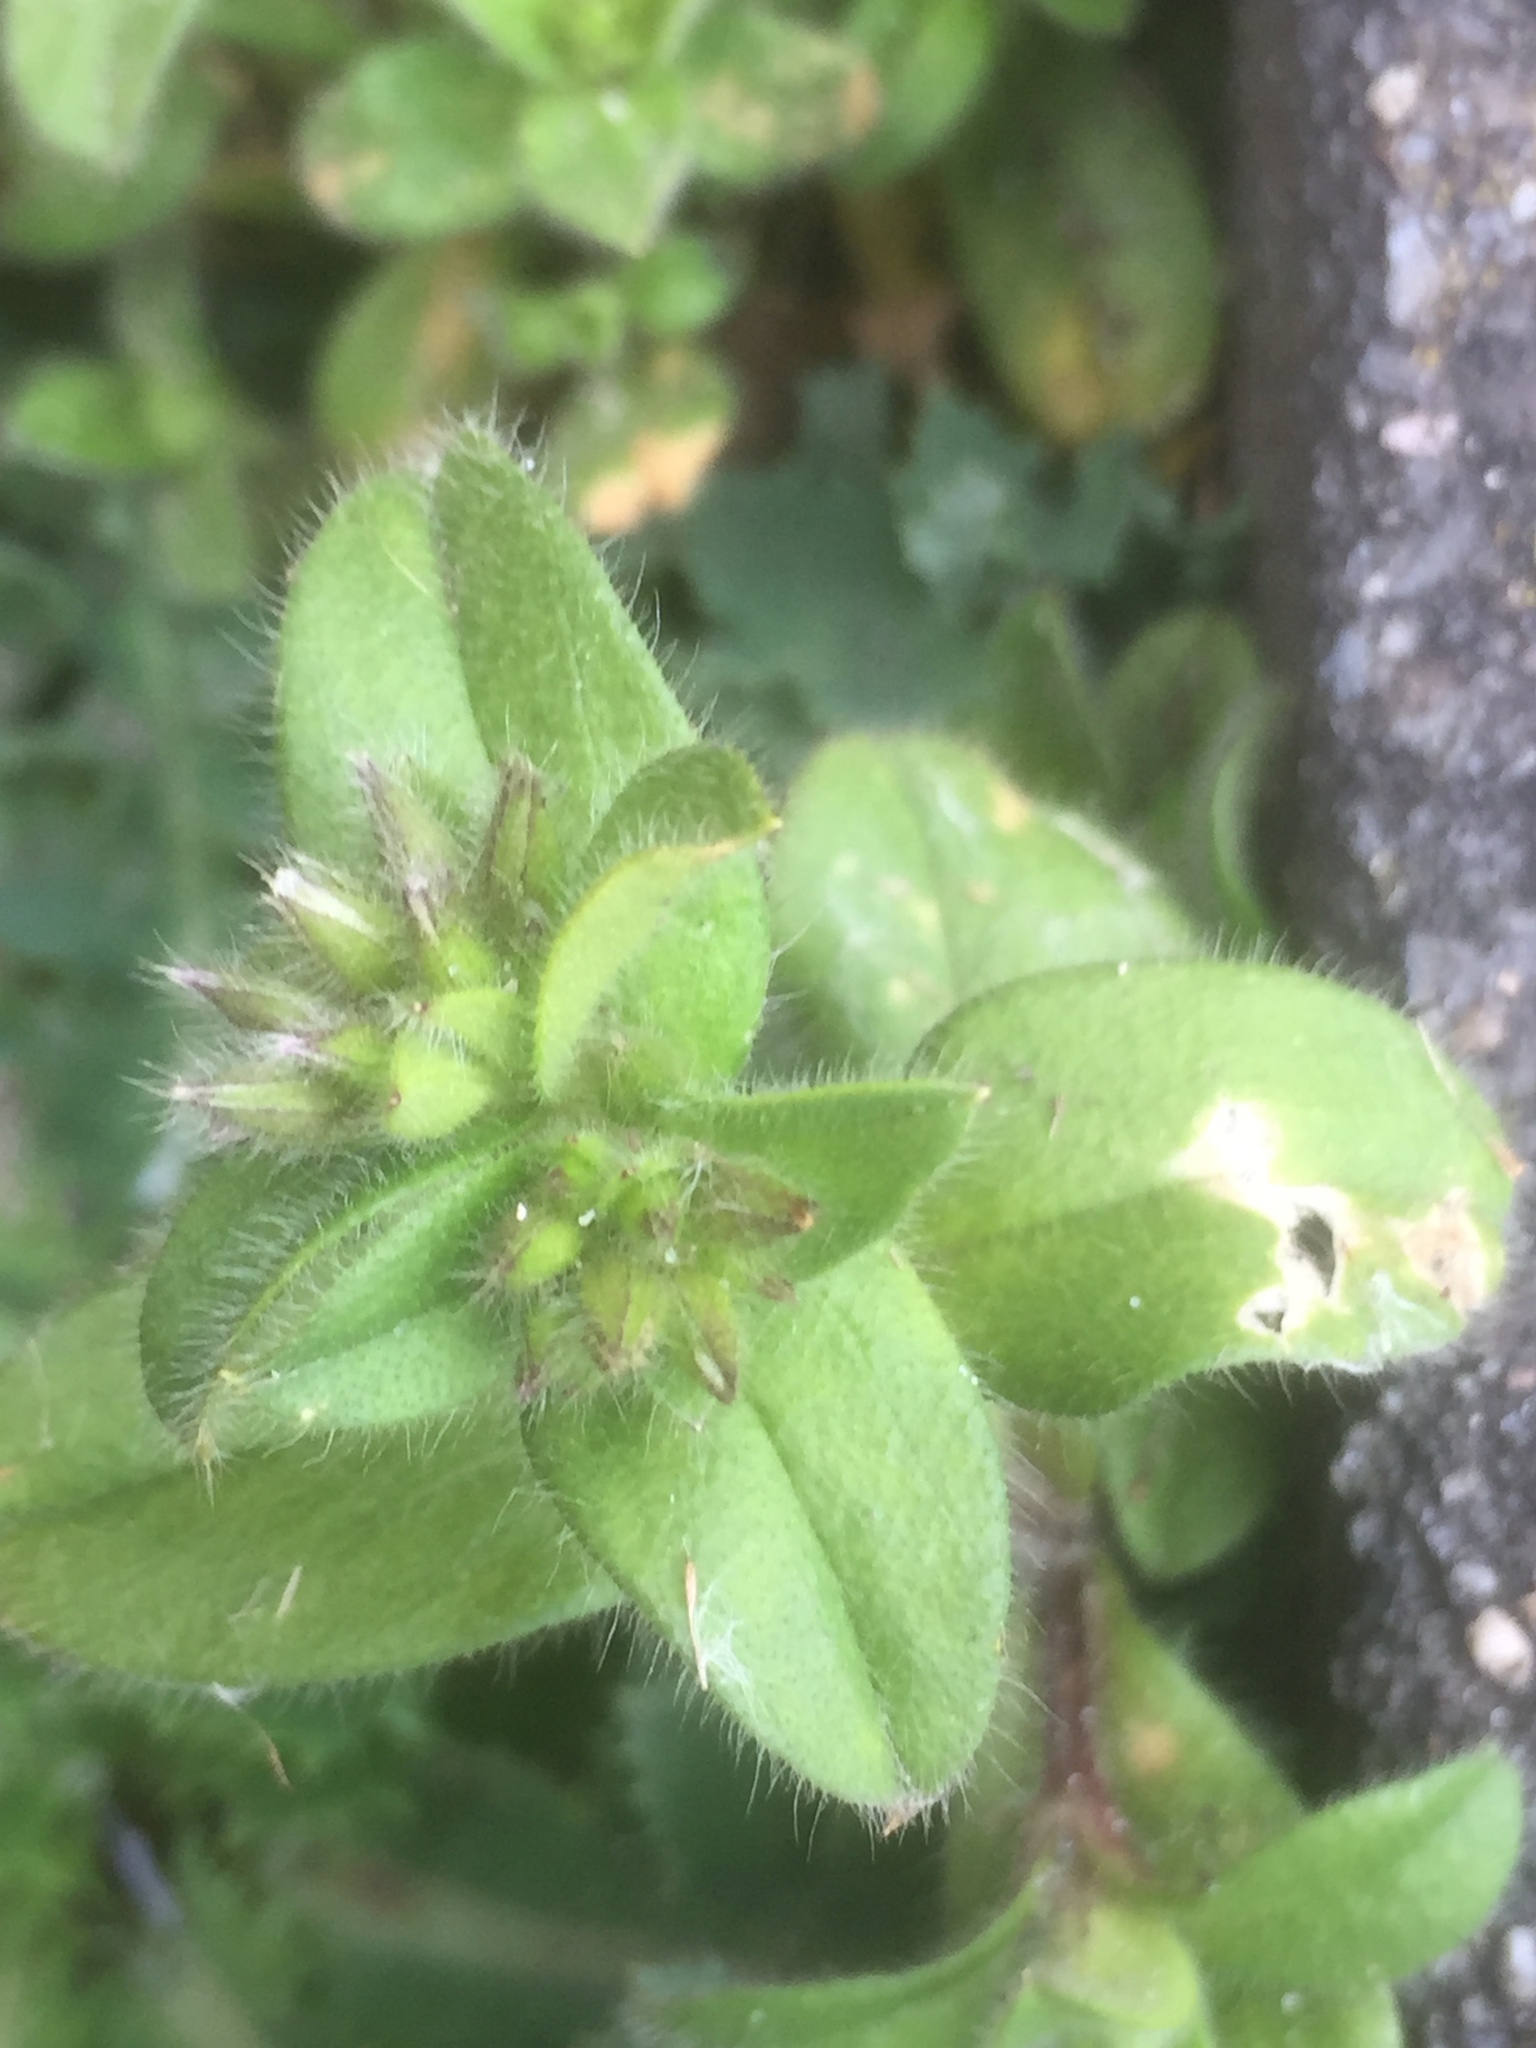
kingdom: Plantae
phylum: Tracheophyta
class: Magnoliopsida
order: Caryophyllales
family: Caryophyllaceae
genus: Cerastium
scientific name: Cerastium glomeratum
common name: Sticky chickweed
